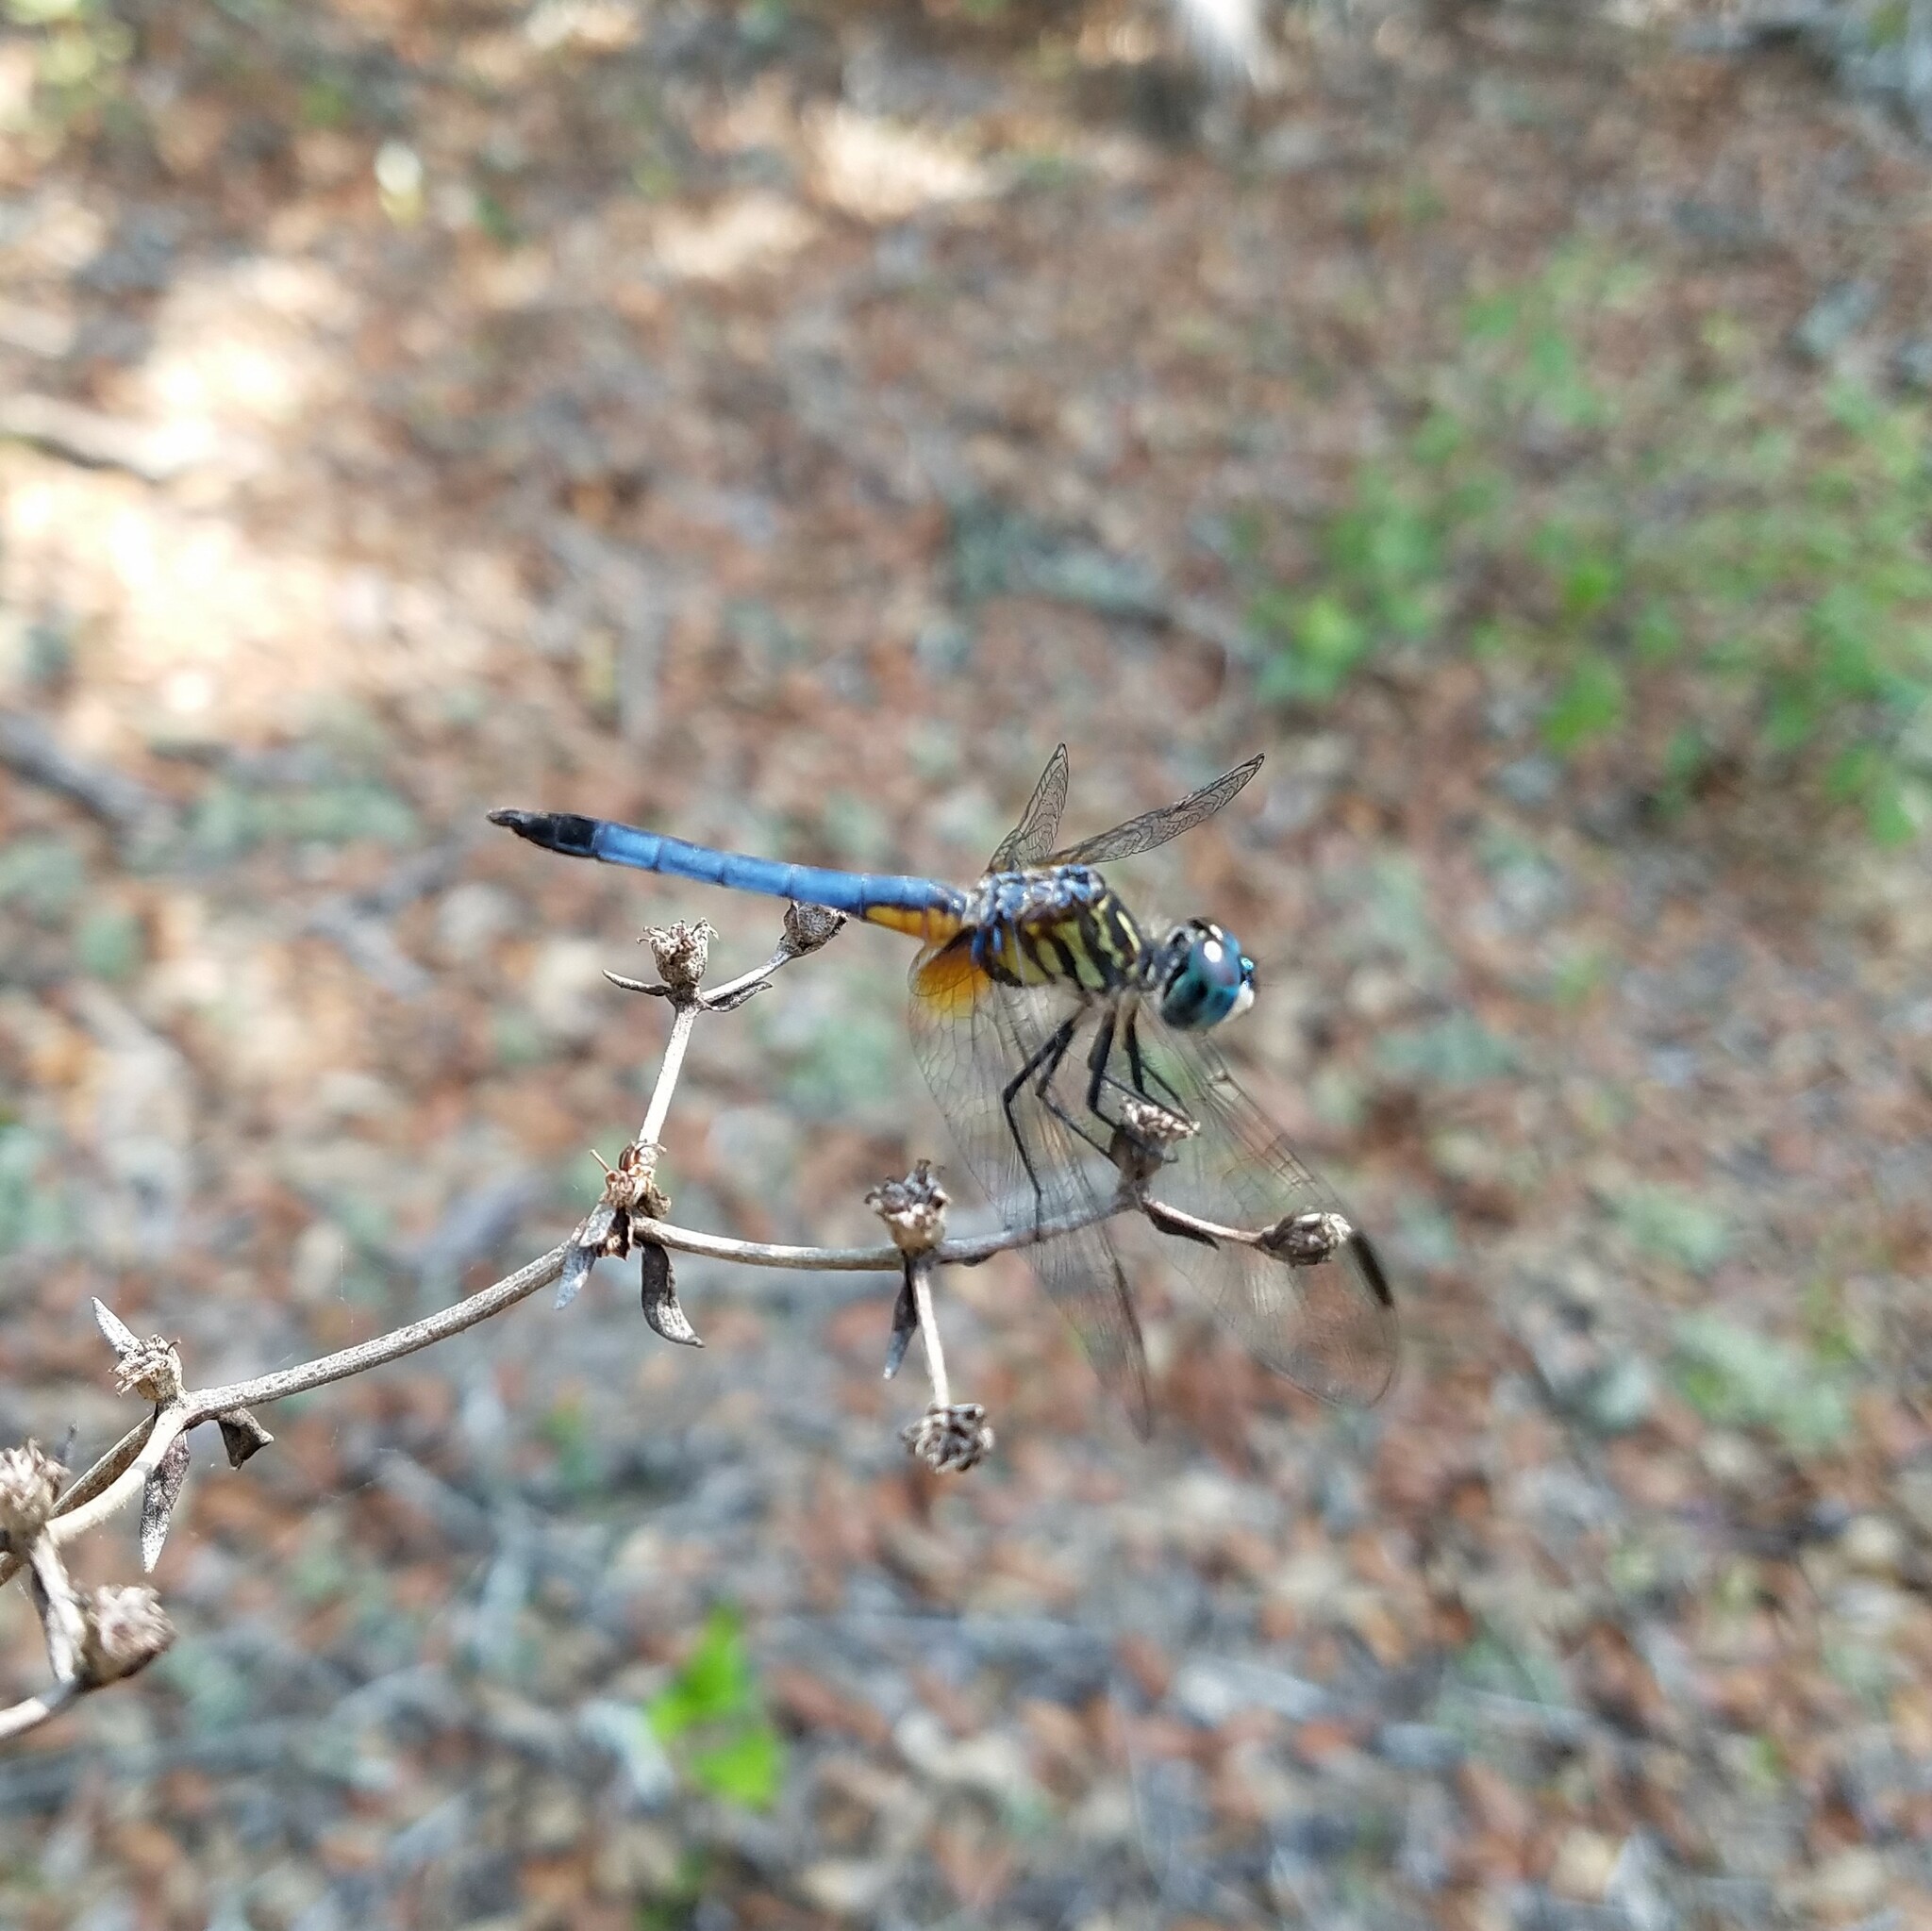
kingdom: Animalia
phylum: Arthropoda
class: Insecta
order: Odonata
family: Libellulidae
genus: Pachydiplax
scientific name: Pachydiplax longipennis
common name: Blue dasher
